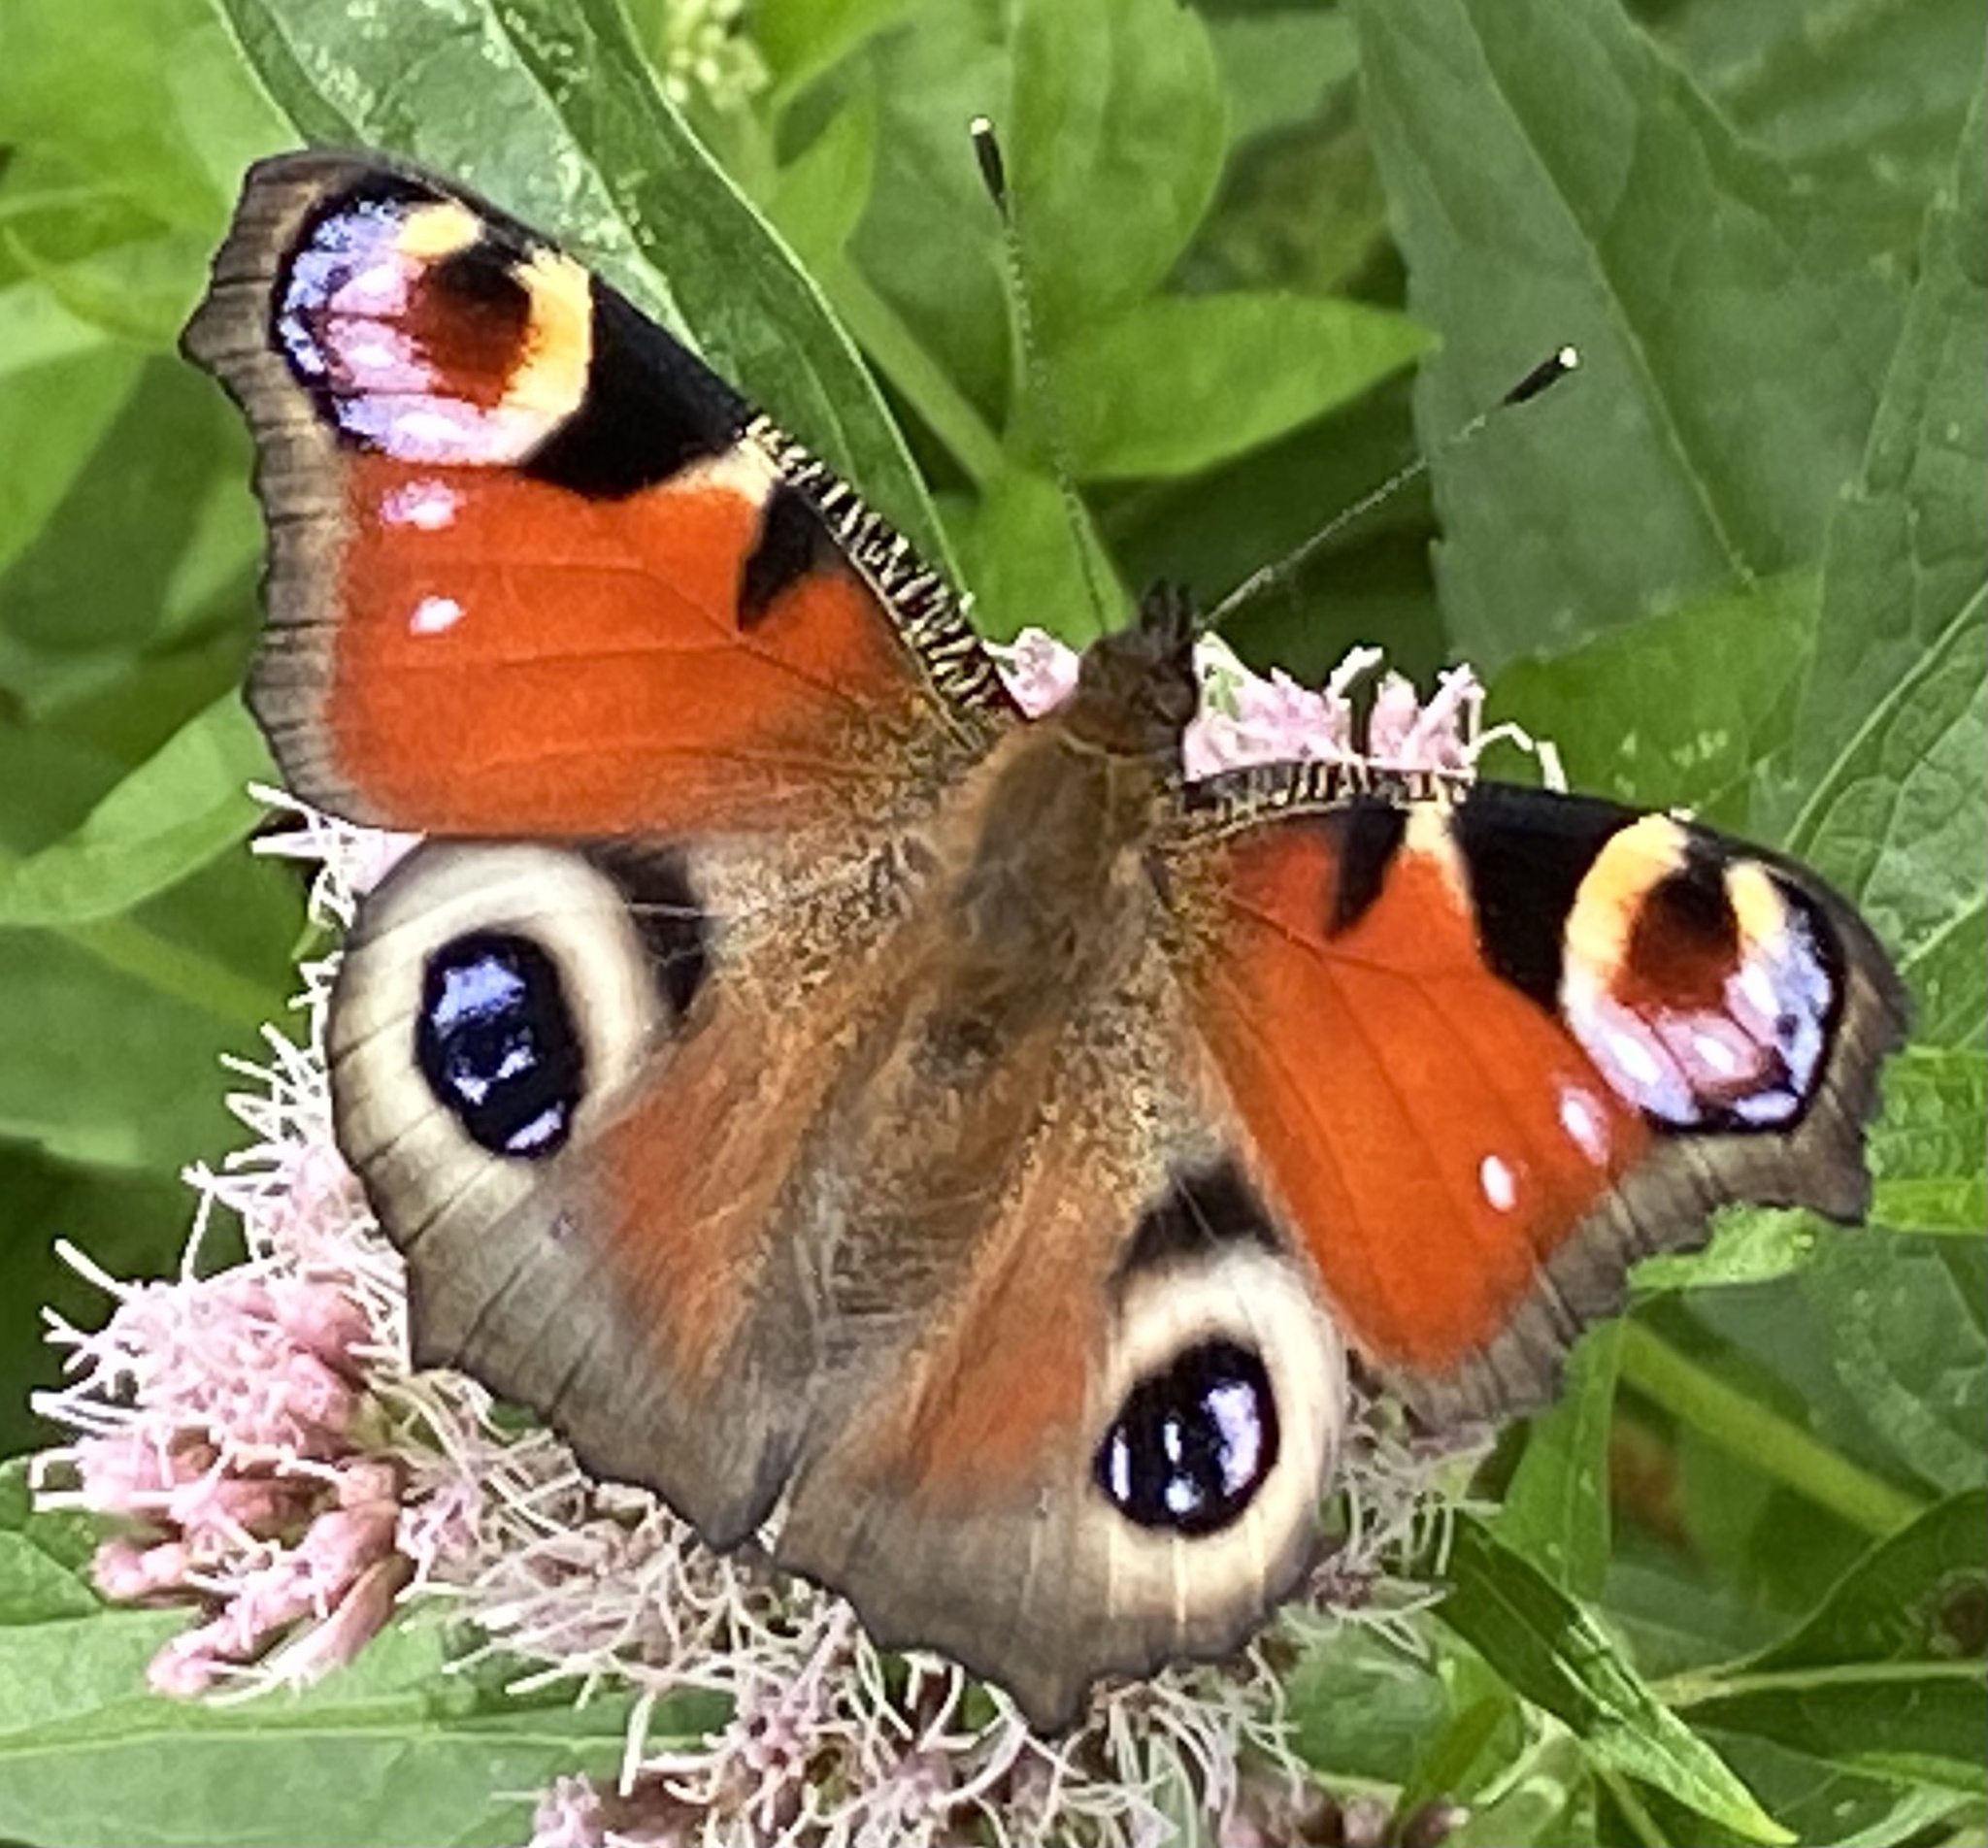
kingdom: Animalia
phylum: Arthropoda
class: Insecta
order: Lepidoptera
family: Nymphalidae
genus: Aglais
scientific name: Aglais io
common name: Peacock
